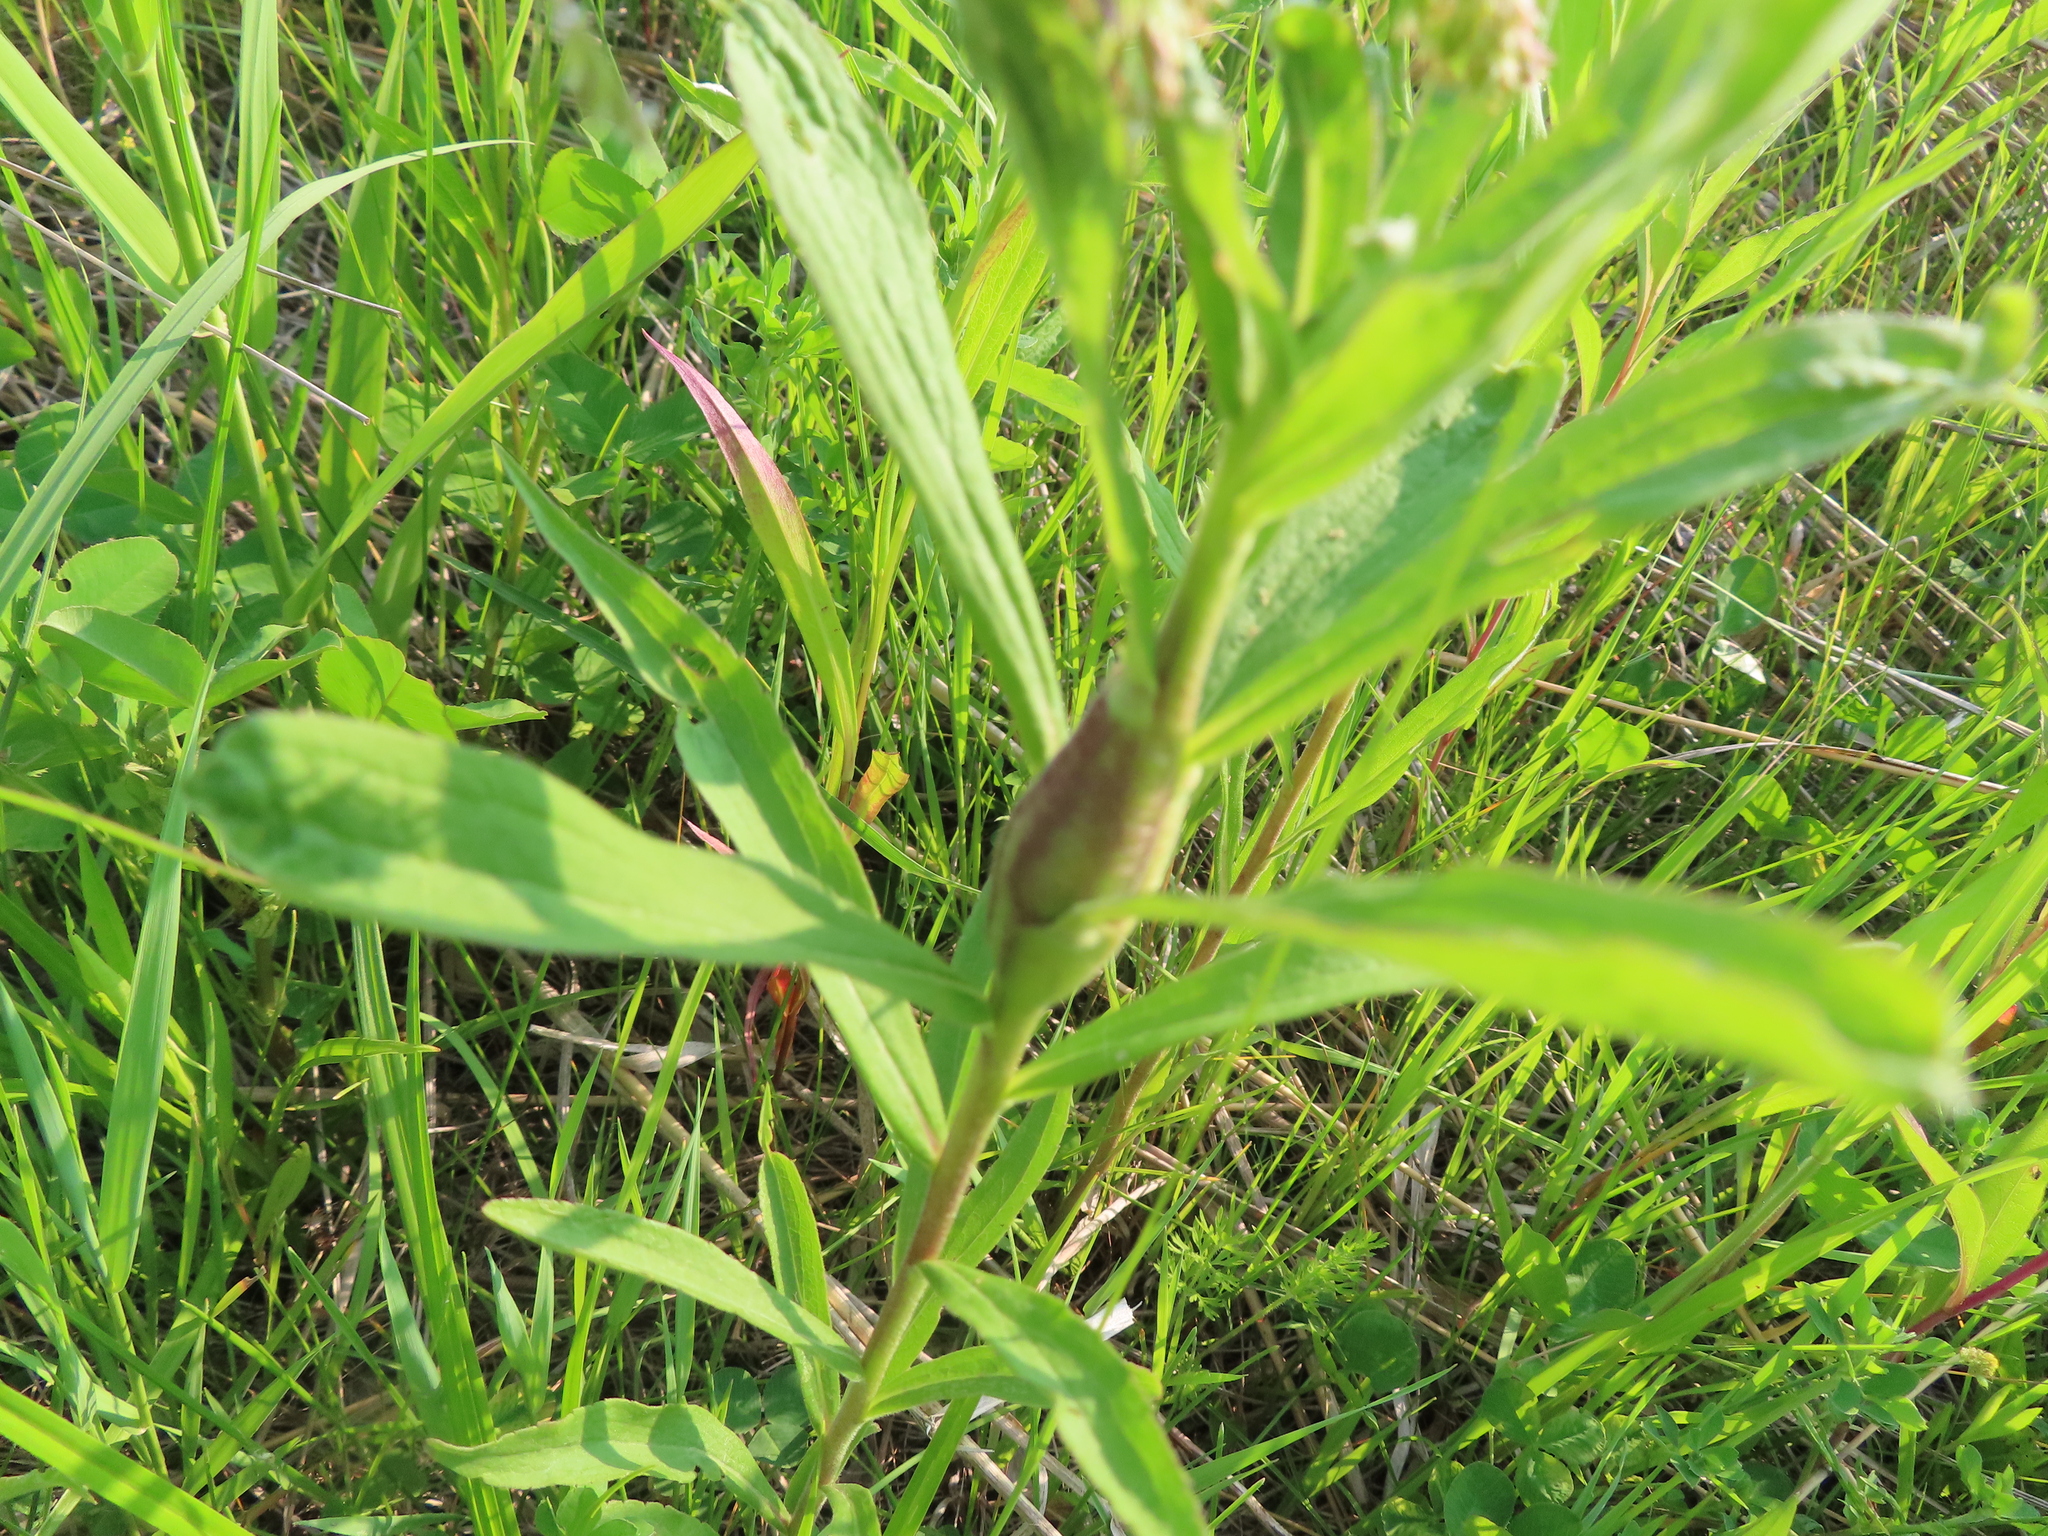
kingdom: Animalia
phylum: Arthropoda
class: Insecta
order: Lepidoptera
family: Gelechiidae
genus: Gnorimoschema
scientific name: Gnorimoschema gallaesolidaginis
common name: Goldenrod elliptical-gall moth
